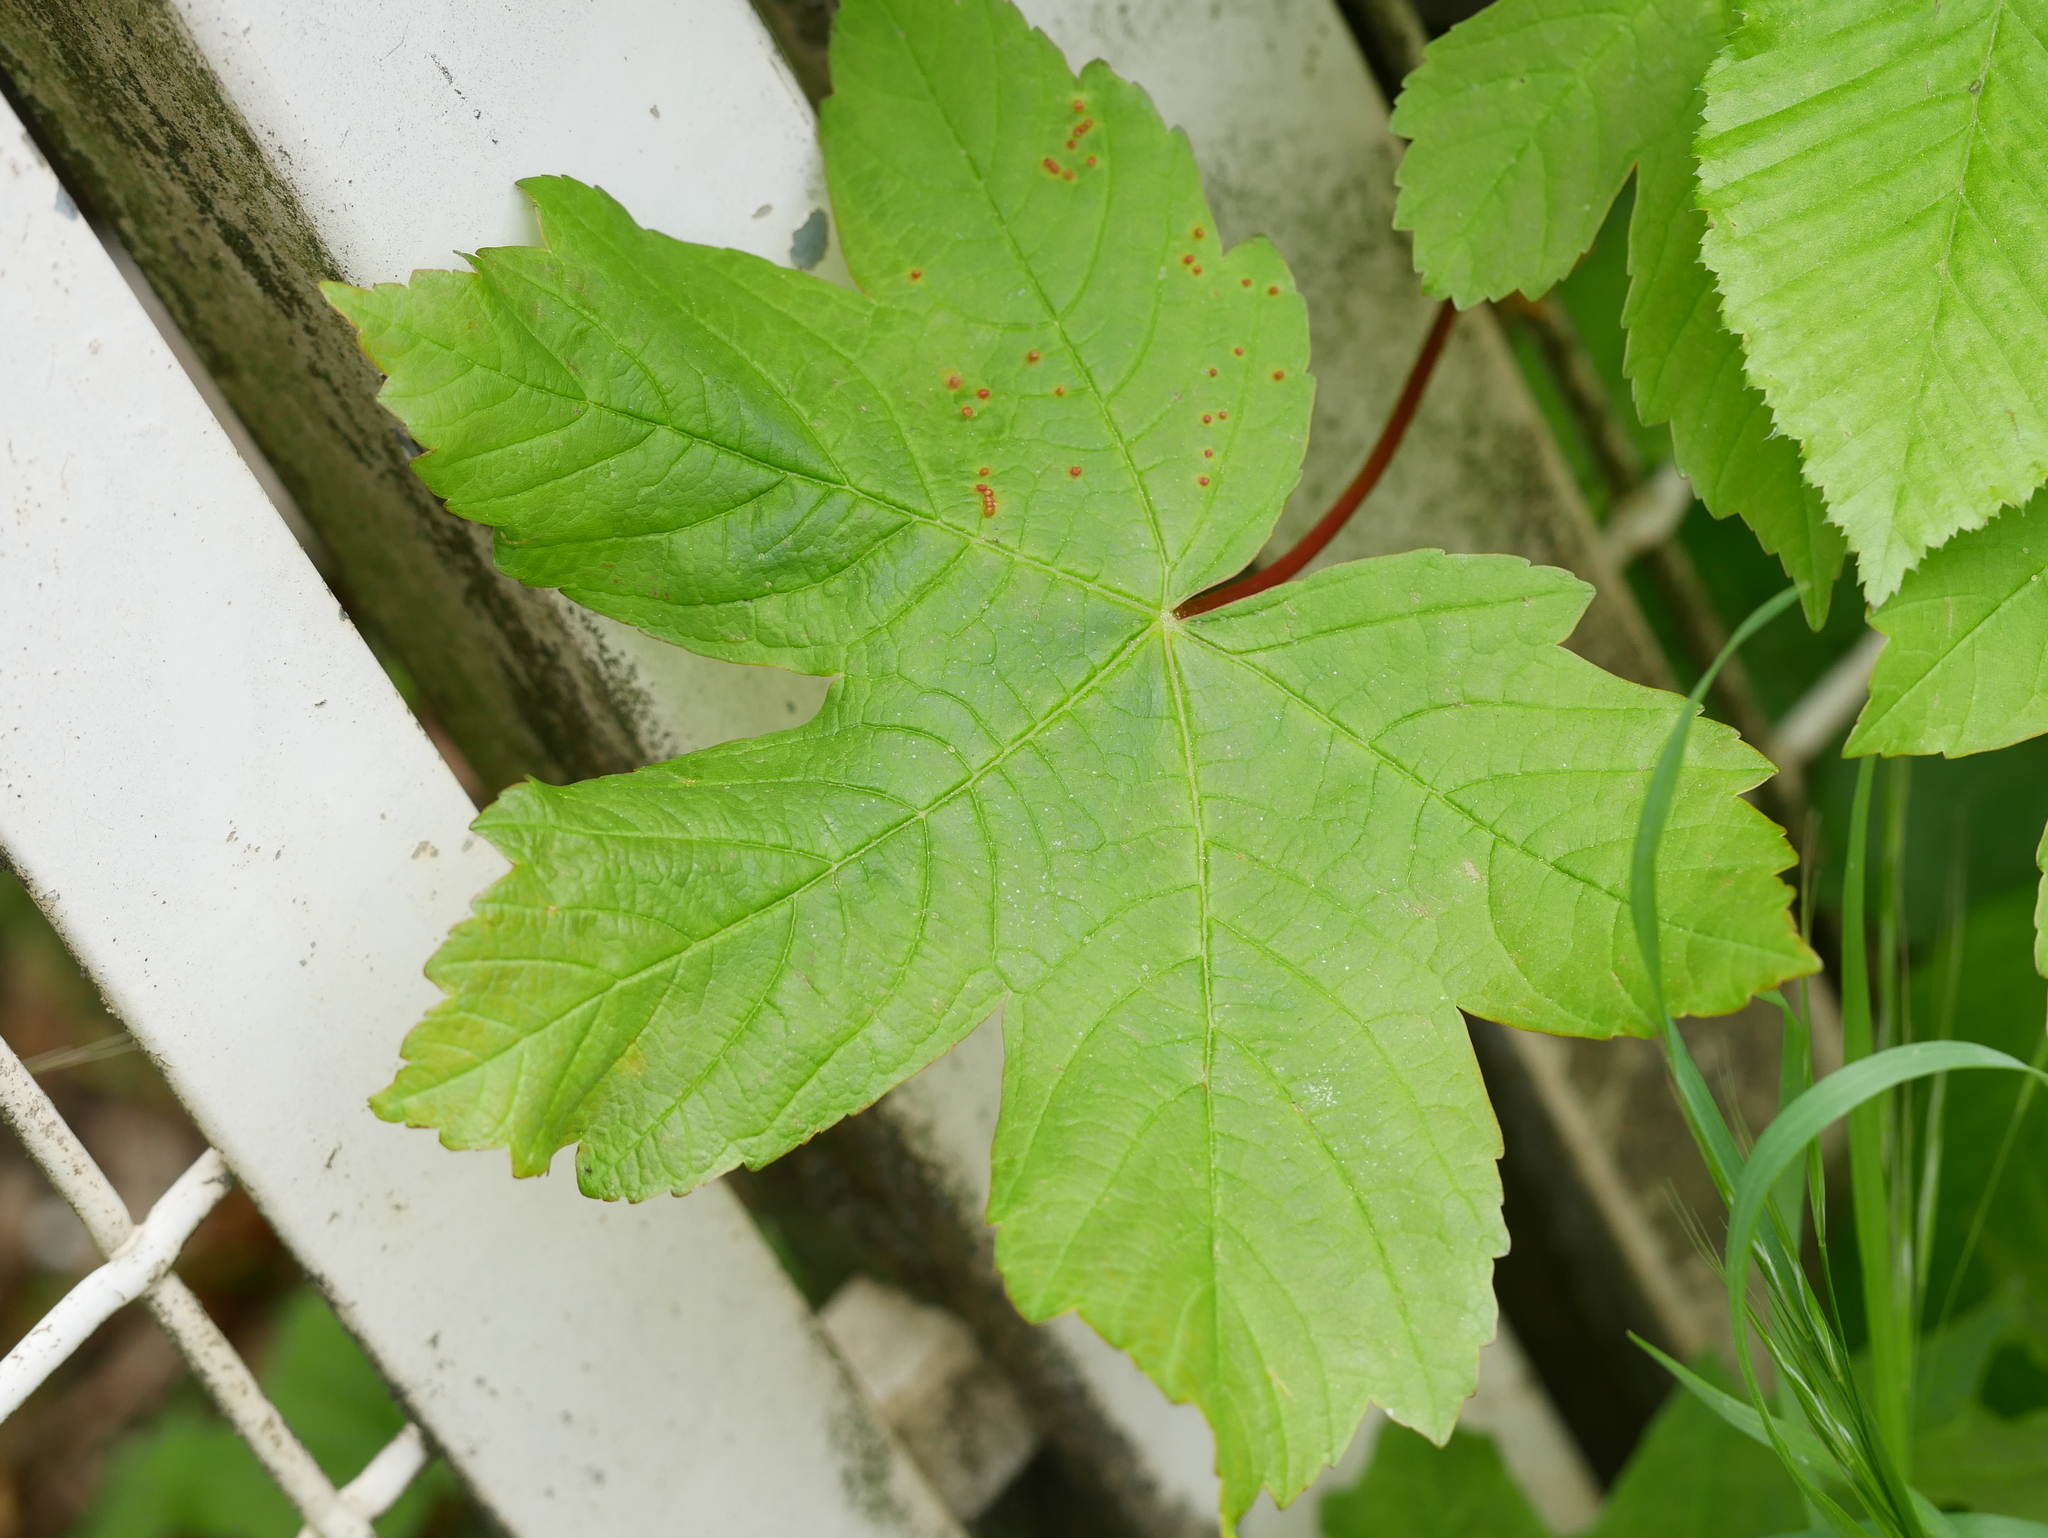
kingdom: Plantae
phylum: Tracheophyta
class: Magnoliopsida
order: Sapindales
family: Sapindaceae
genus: Acer
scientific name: Acer pseudoplatanus
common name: Sycamore
